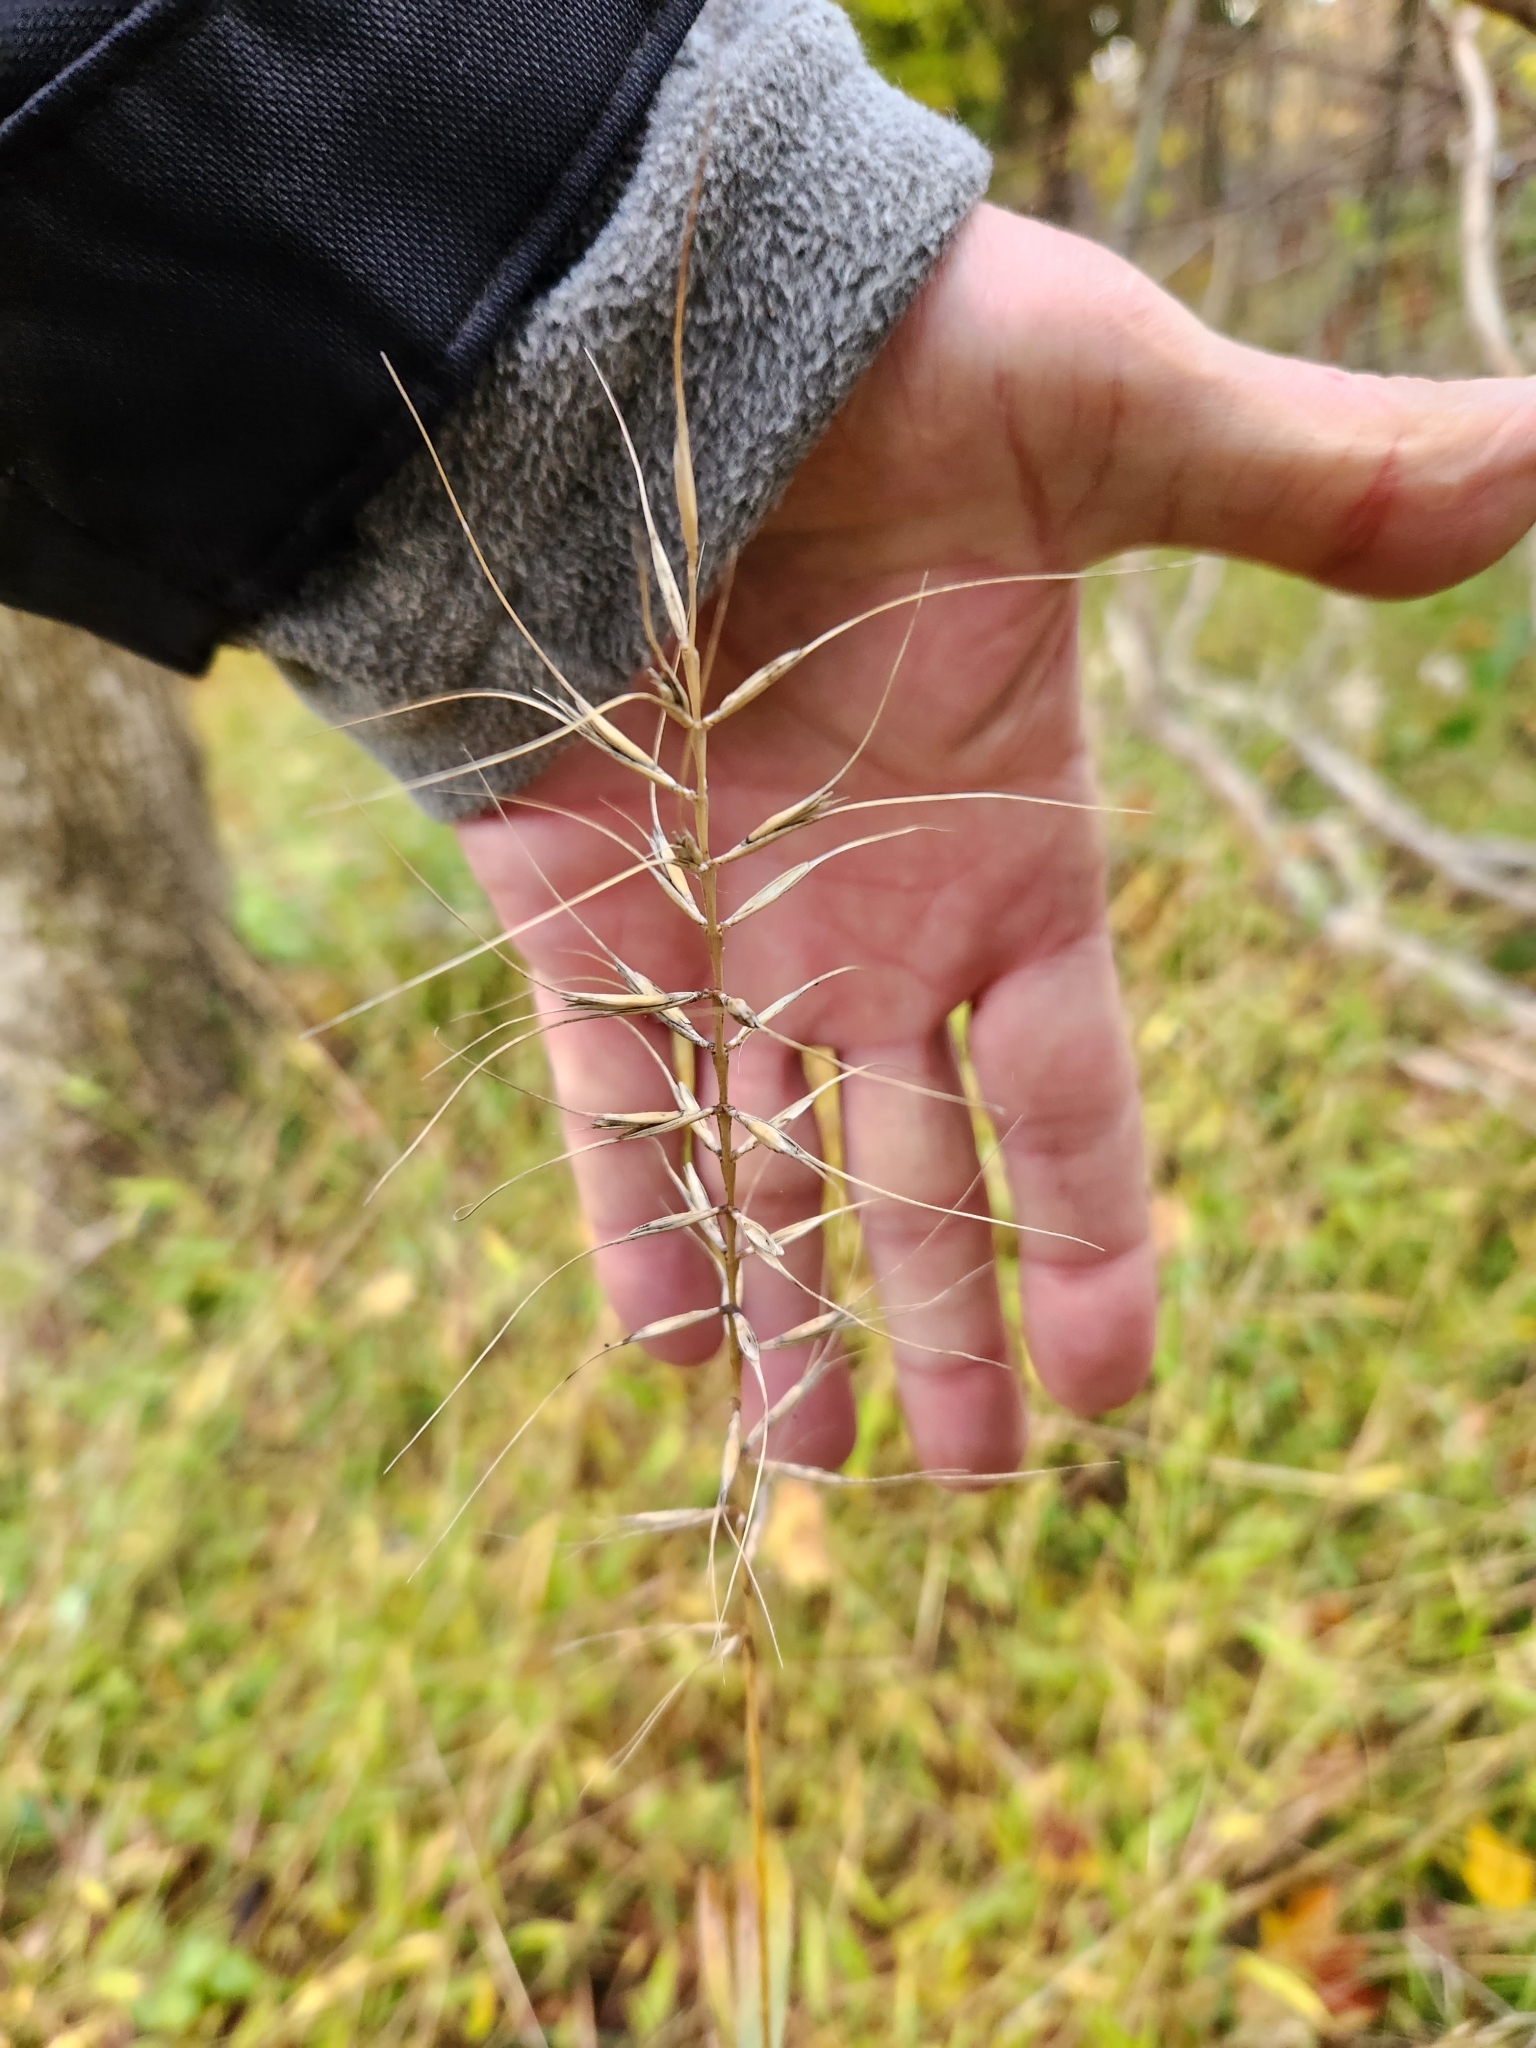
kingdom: Plantae
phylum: Tracheophyta
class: Liliopsida
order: Poales
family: Poaceae
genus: Elymus
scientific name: Elymus hystrix
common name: Bottlebrush grass
